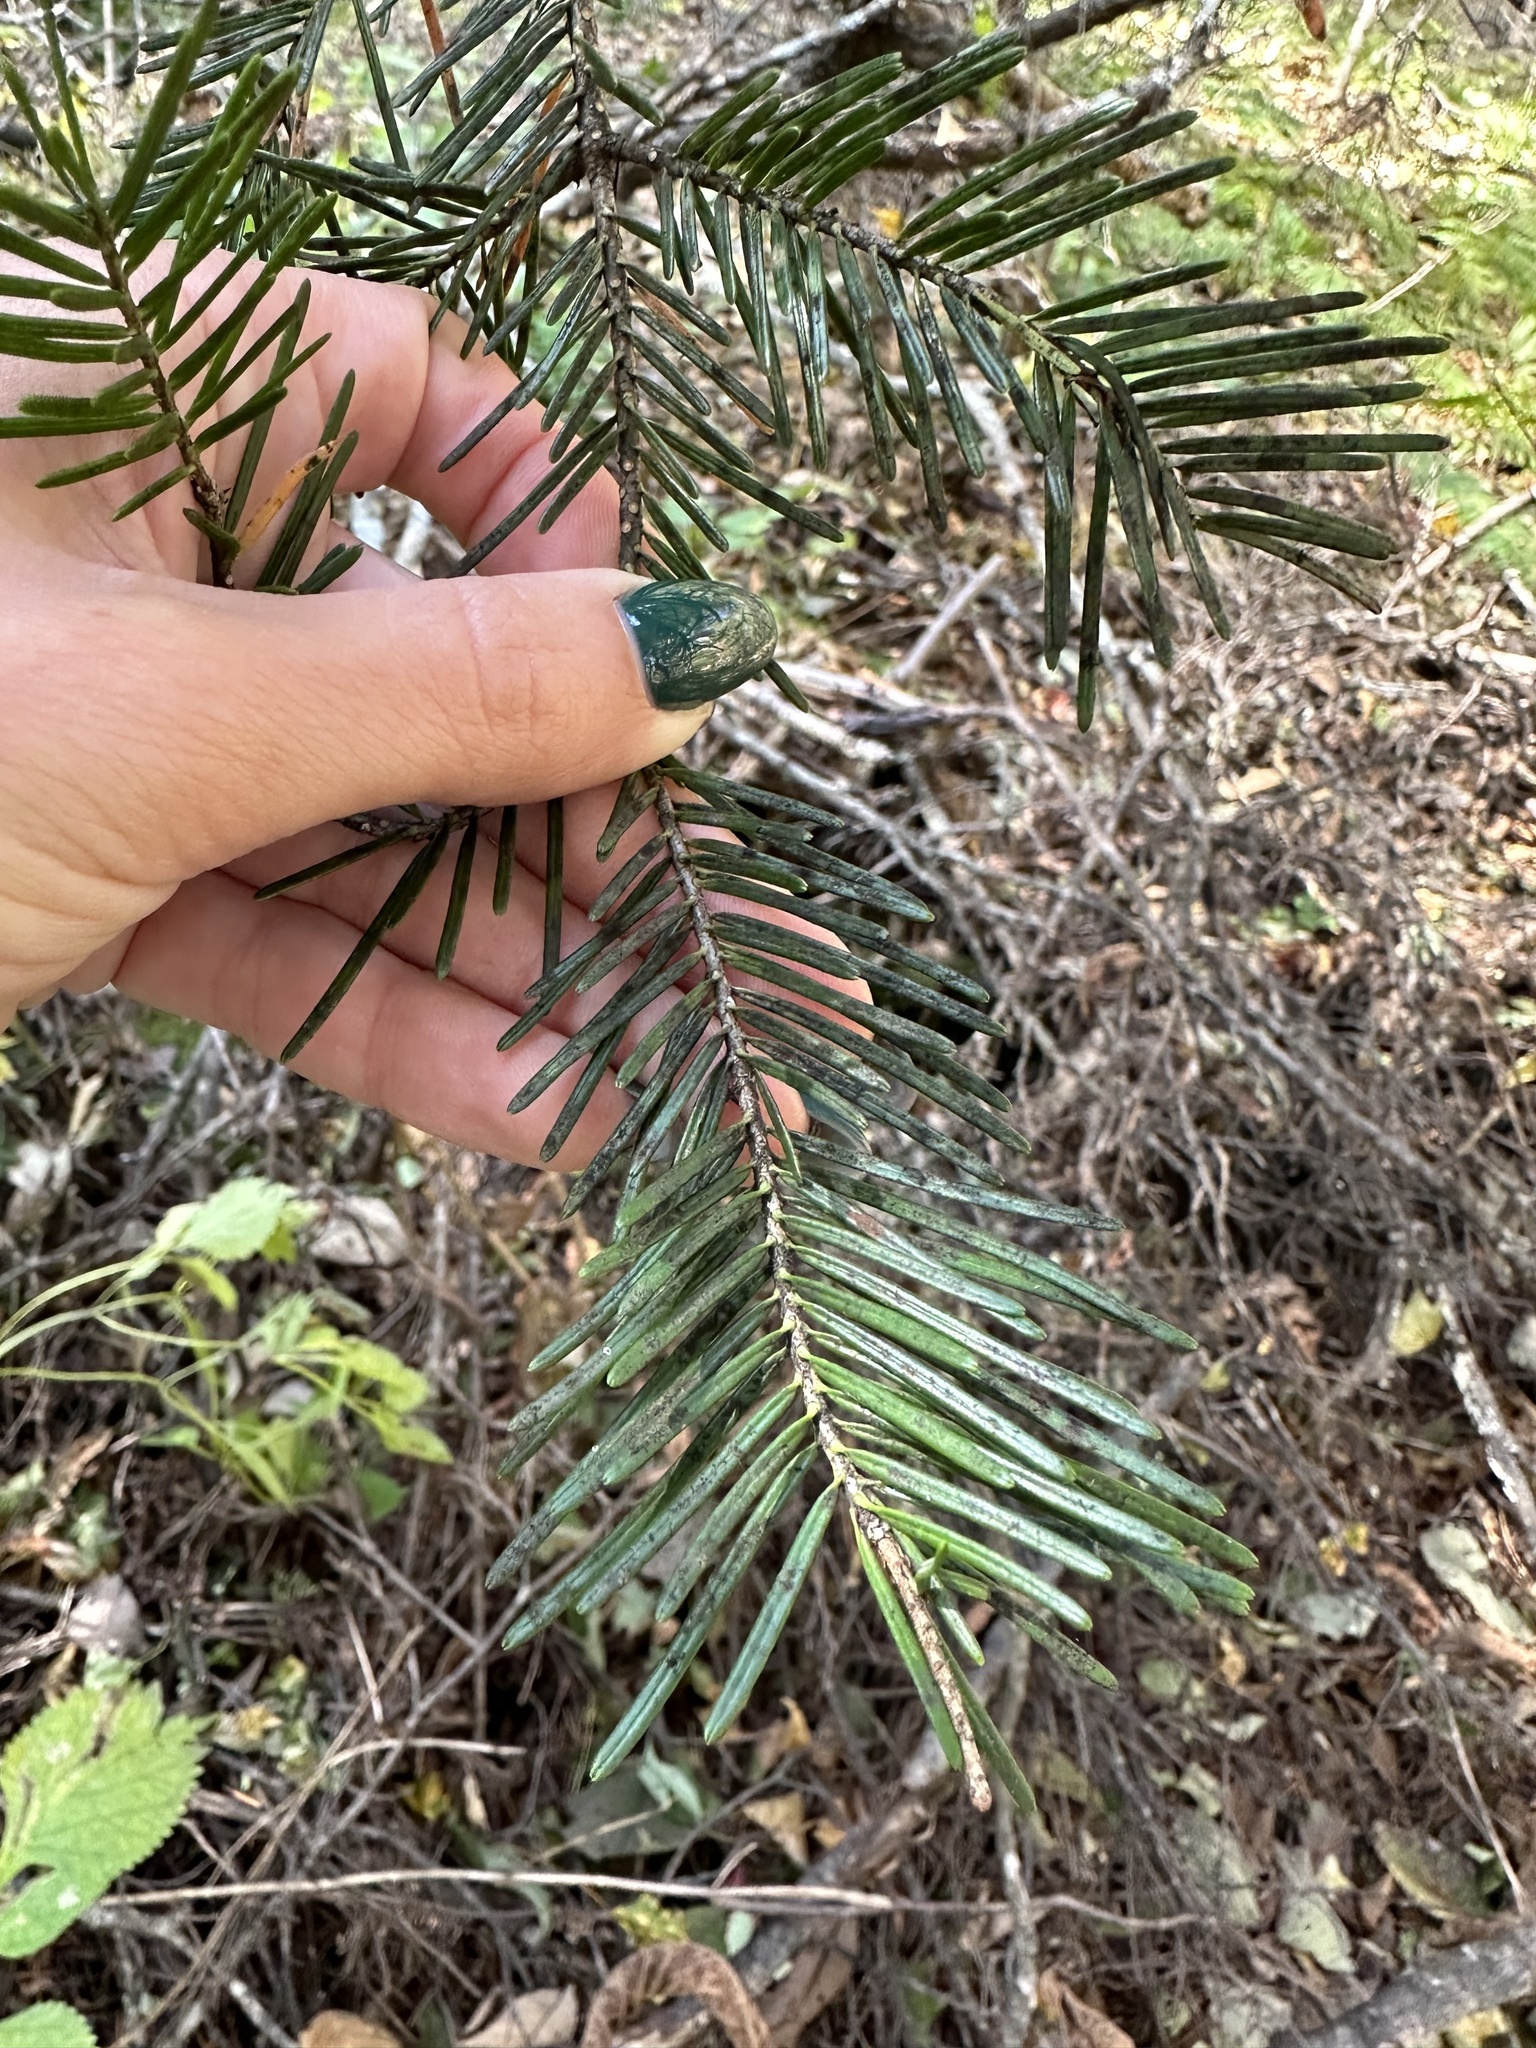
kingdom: Plantae
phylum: Tracheophyta
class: Pinopsida
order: Pinales
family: Pinaceae
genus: Abies
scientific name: Abies nephrolepis
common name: Hinggan fir
